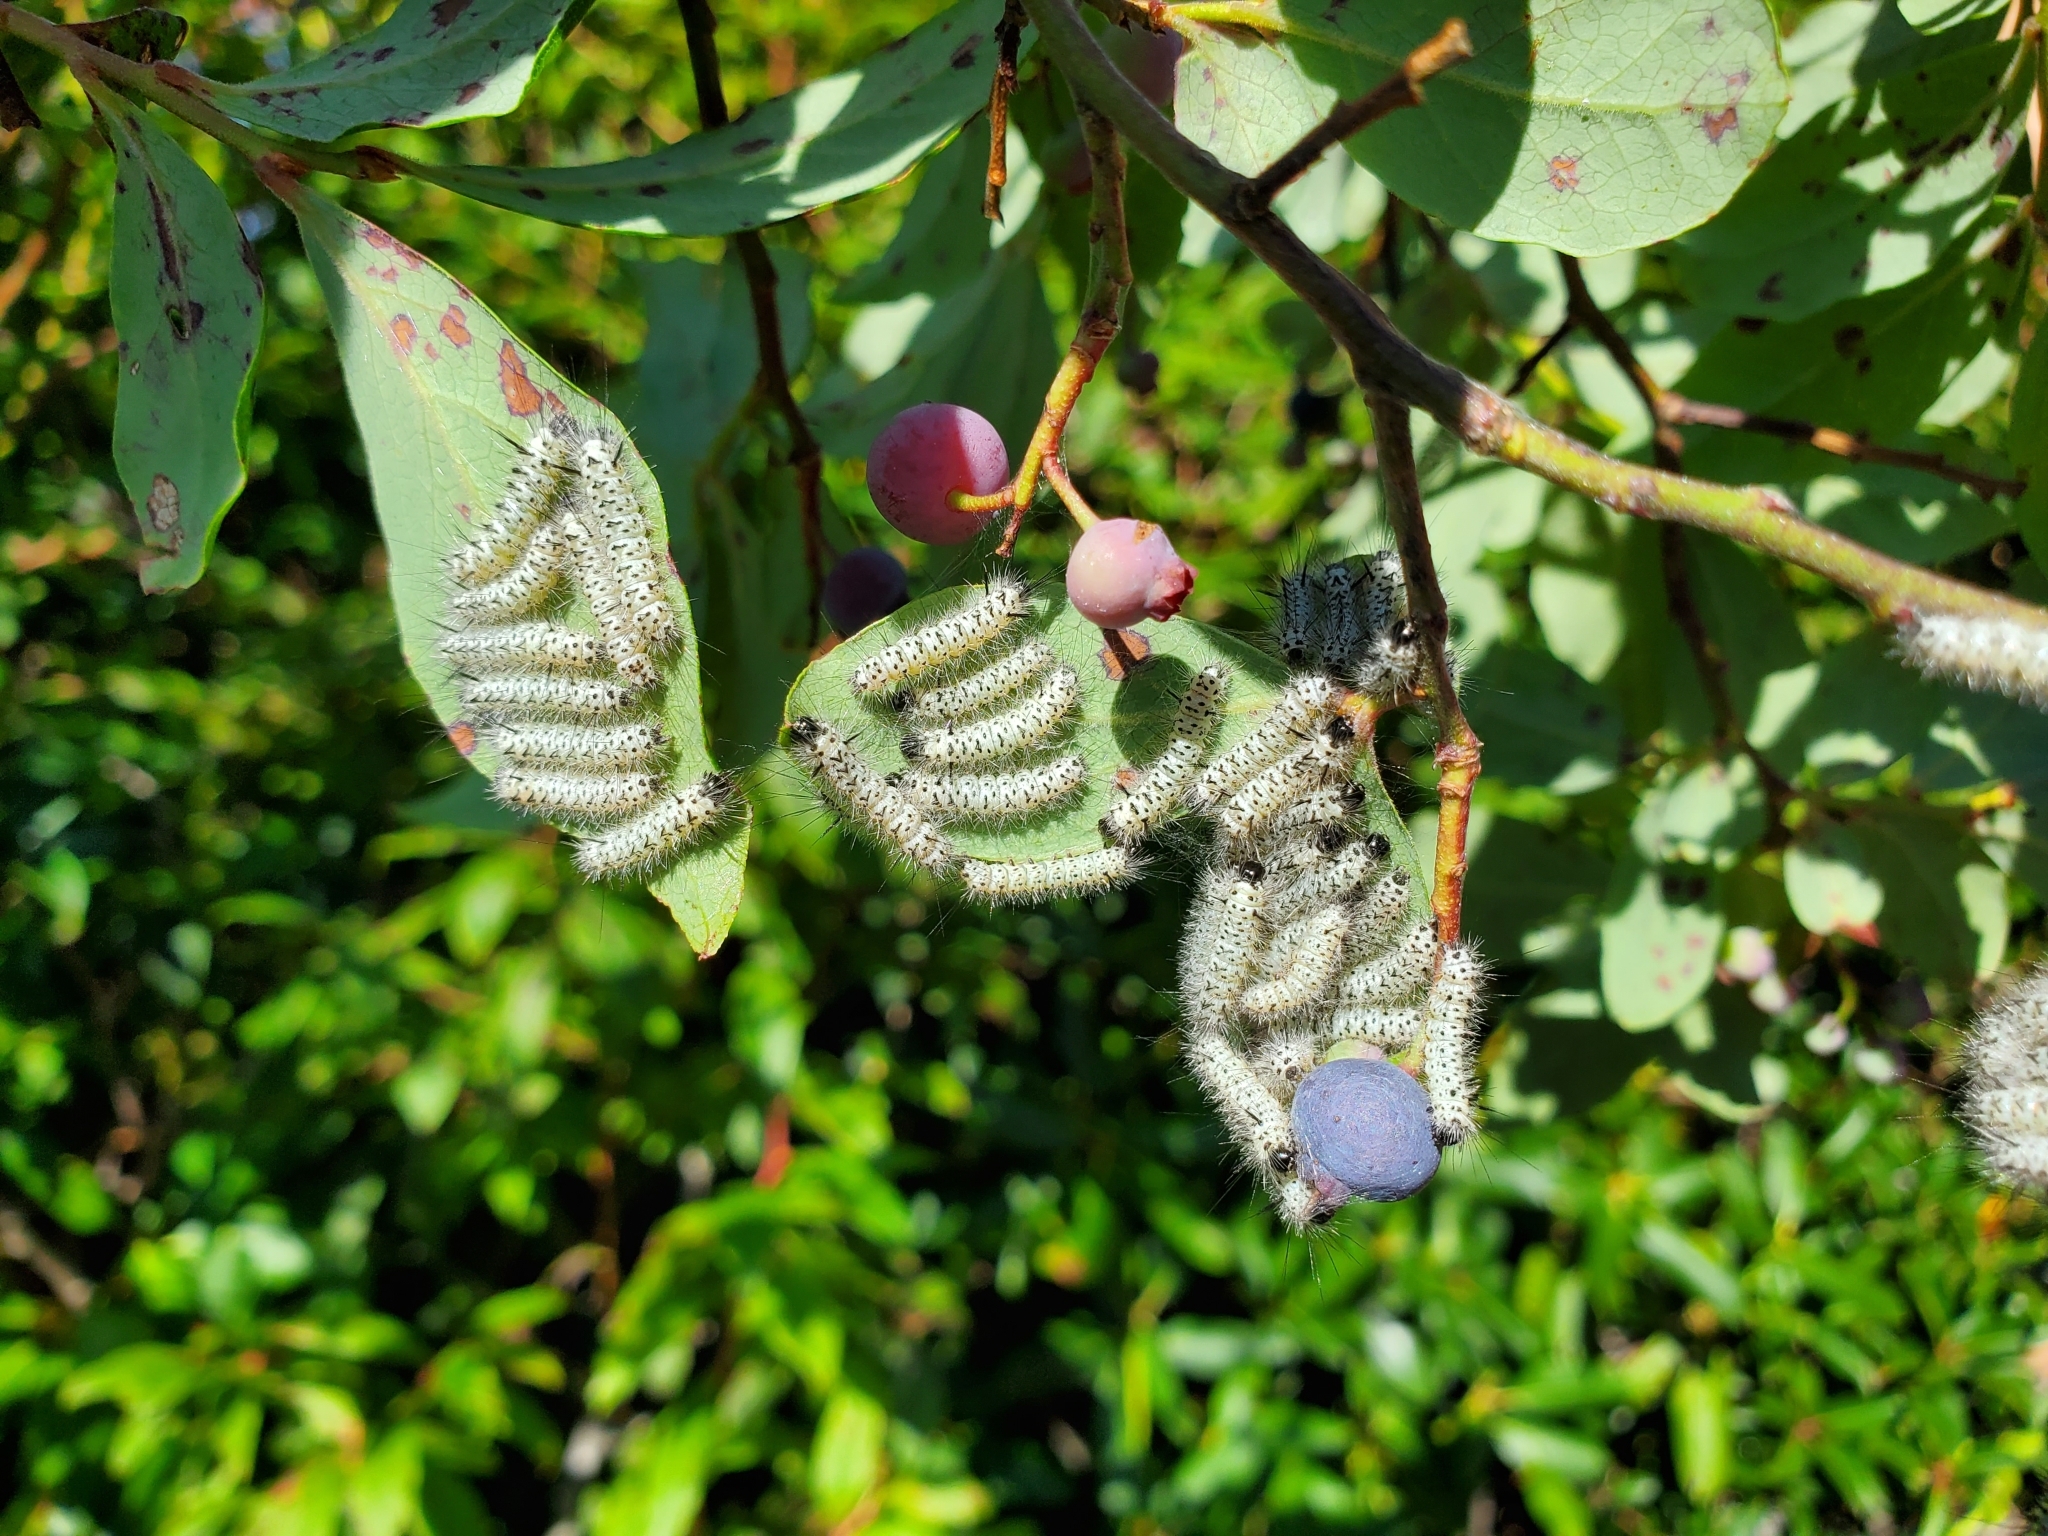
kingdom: Animalia
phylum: Arthropoda
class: Insecta
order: Lepidoptera
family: Erebidae
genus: Lophocampa
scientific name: Lophocampa caryae
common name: Hickory tussock moth
